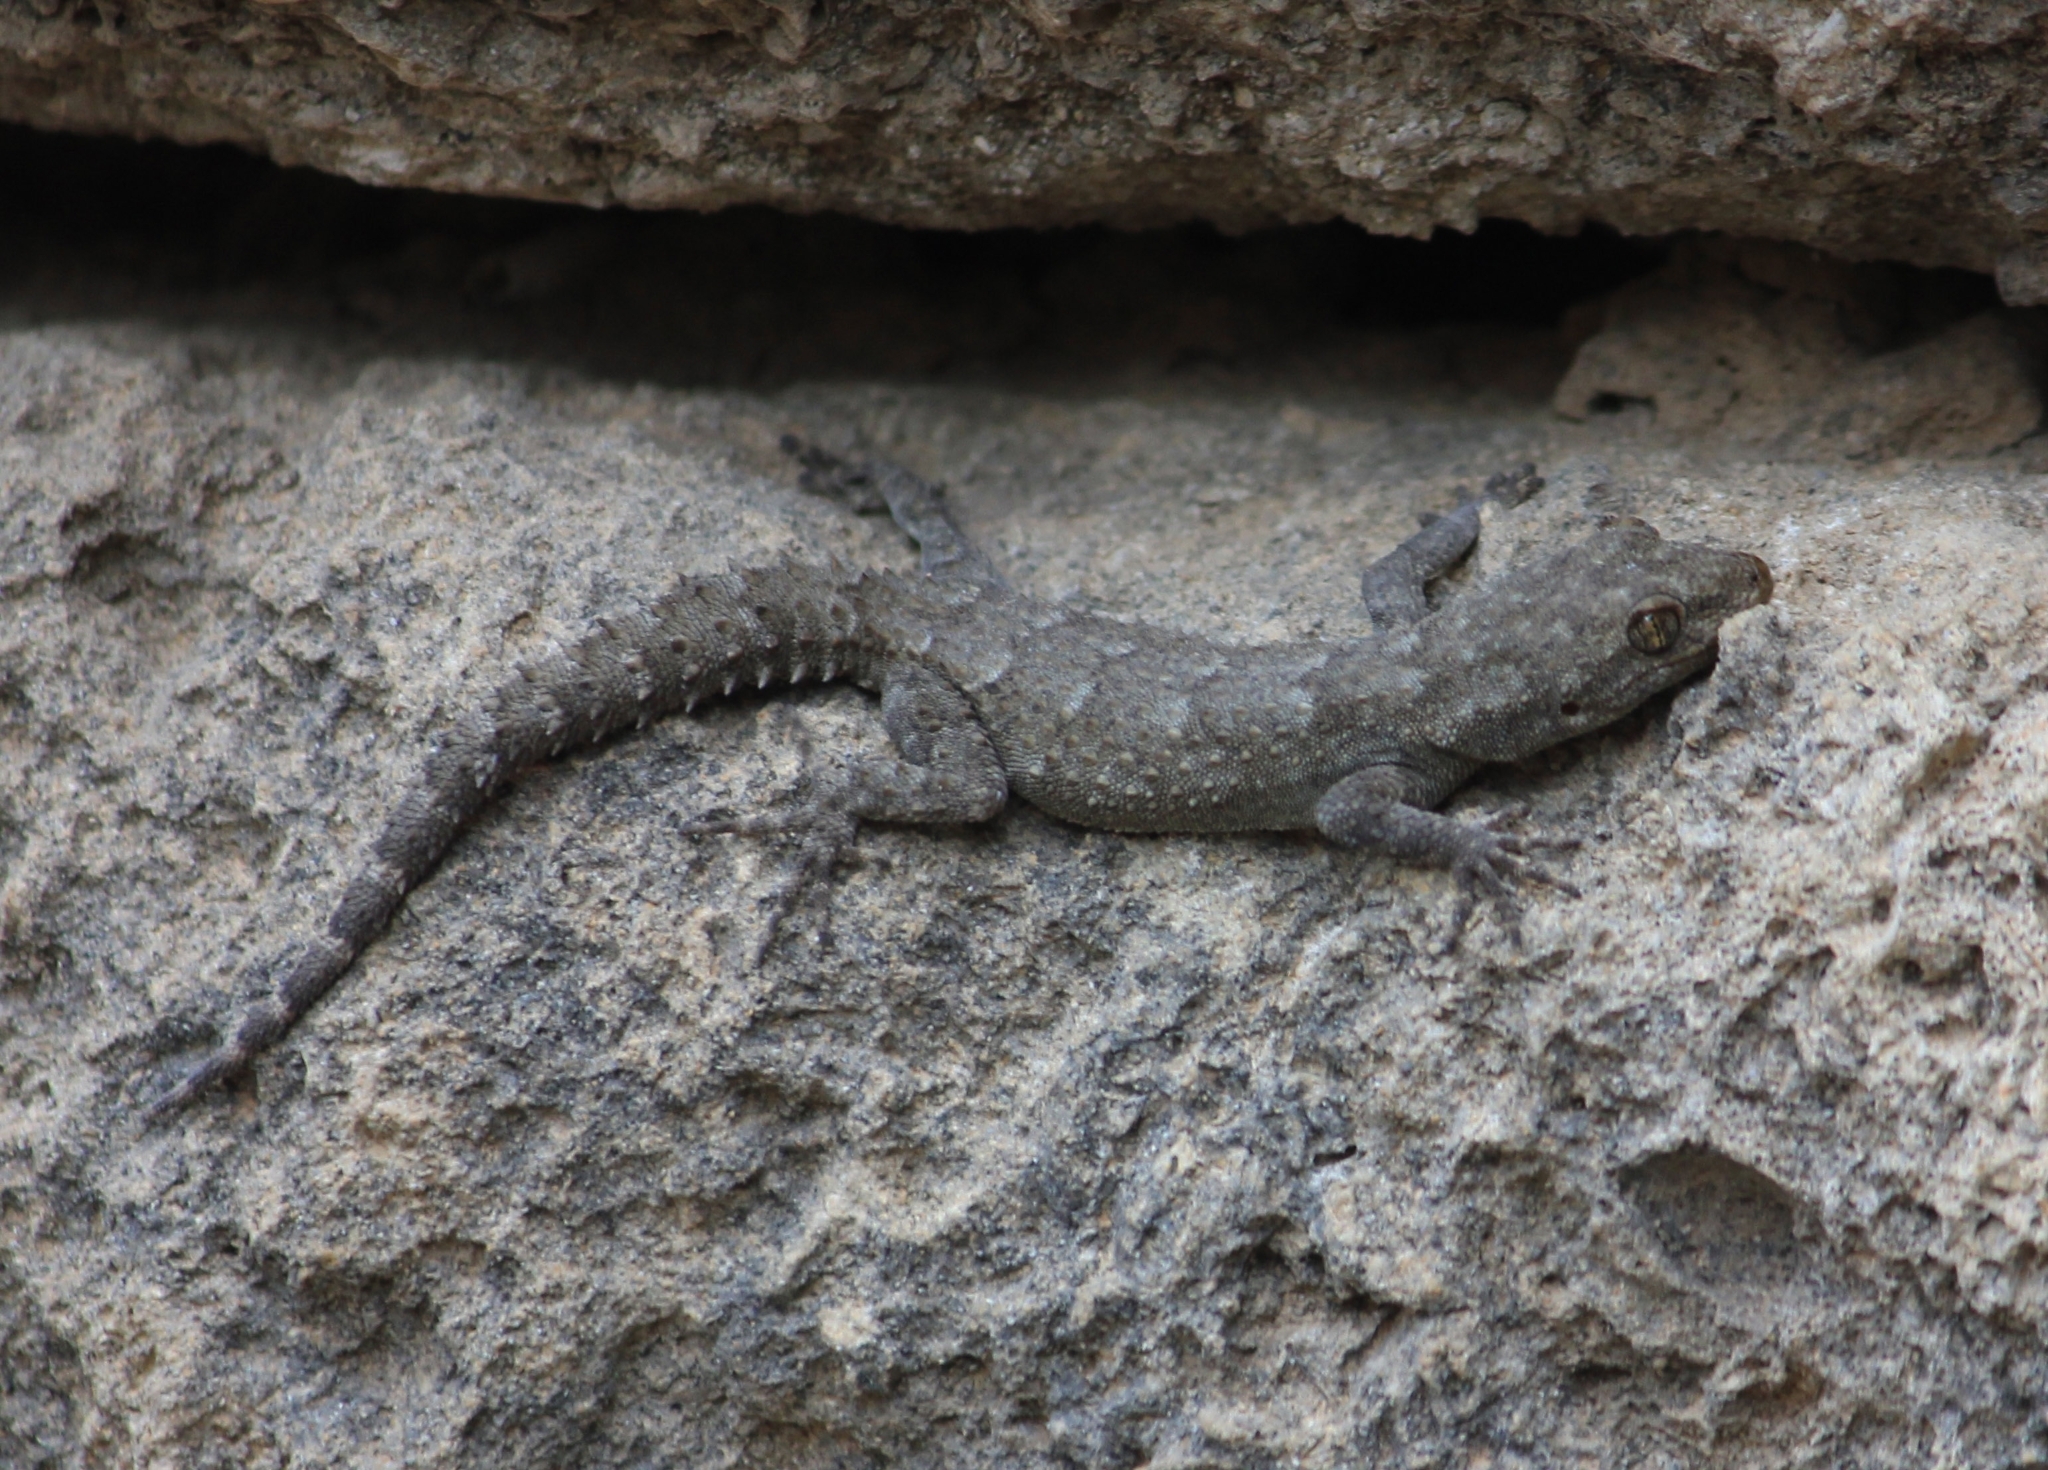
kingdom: Animalia
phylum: Chordata
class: Squamata
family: Gekkonidae
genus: Mediodactylus
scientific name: Mediodactylus kotschyi
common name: Kotschy's gecko
